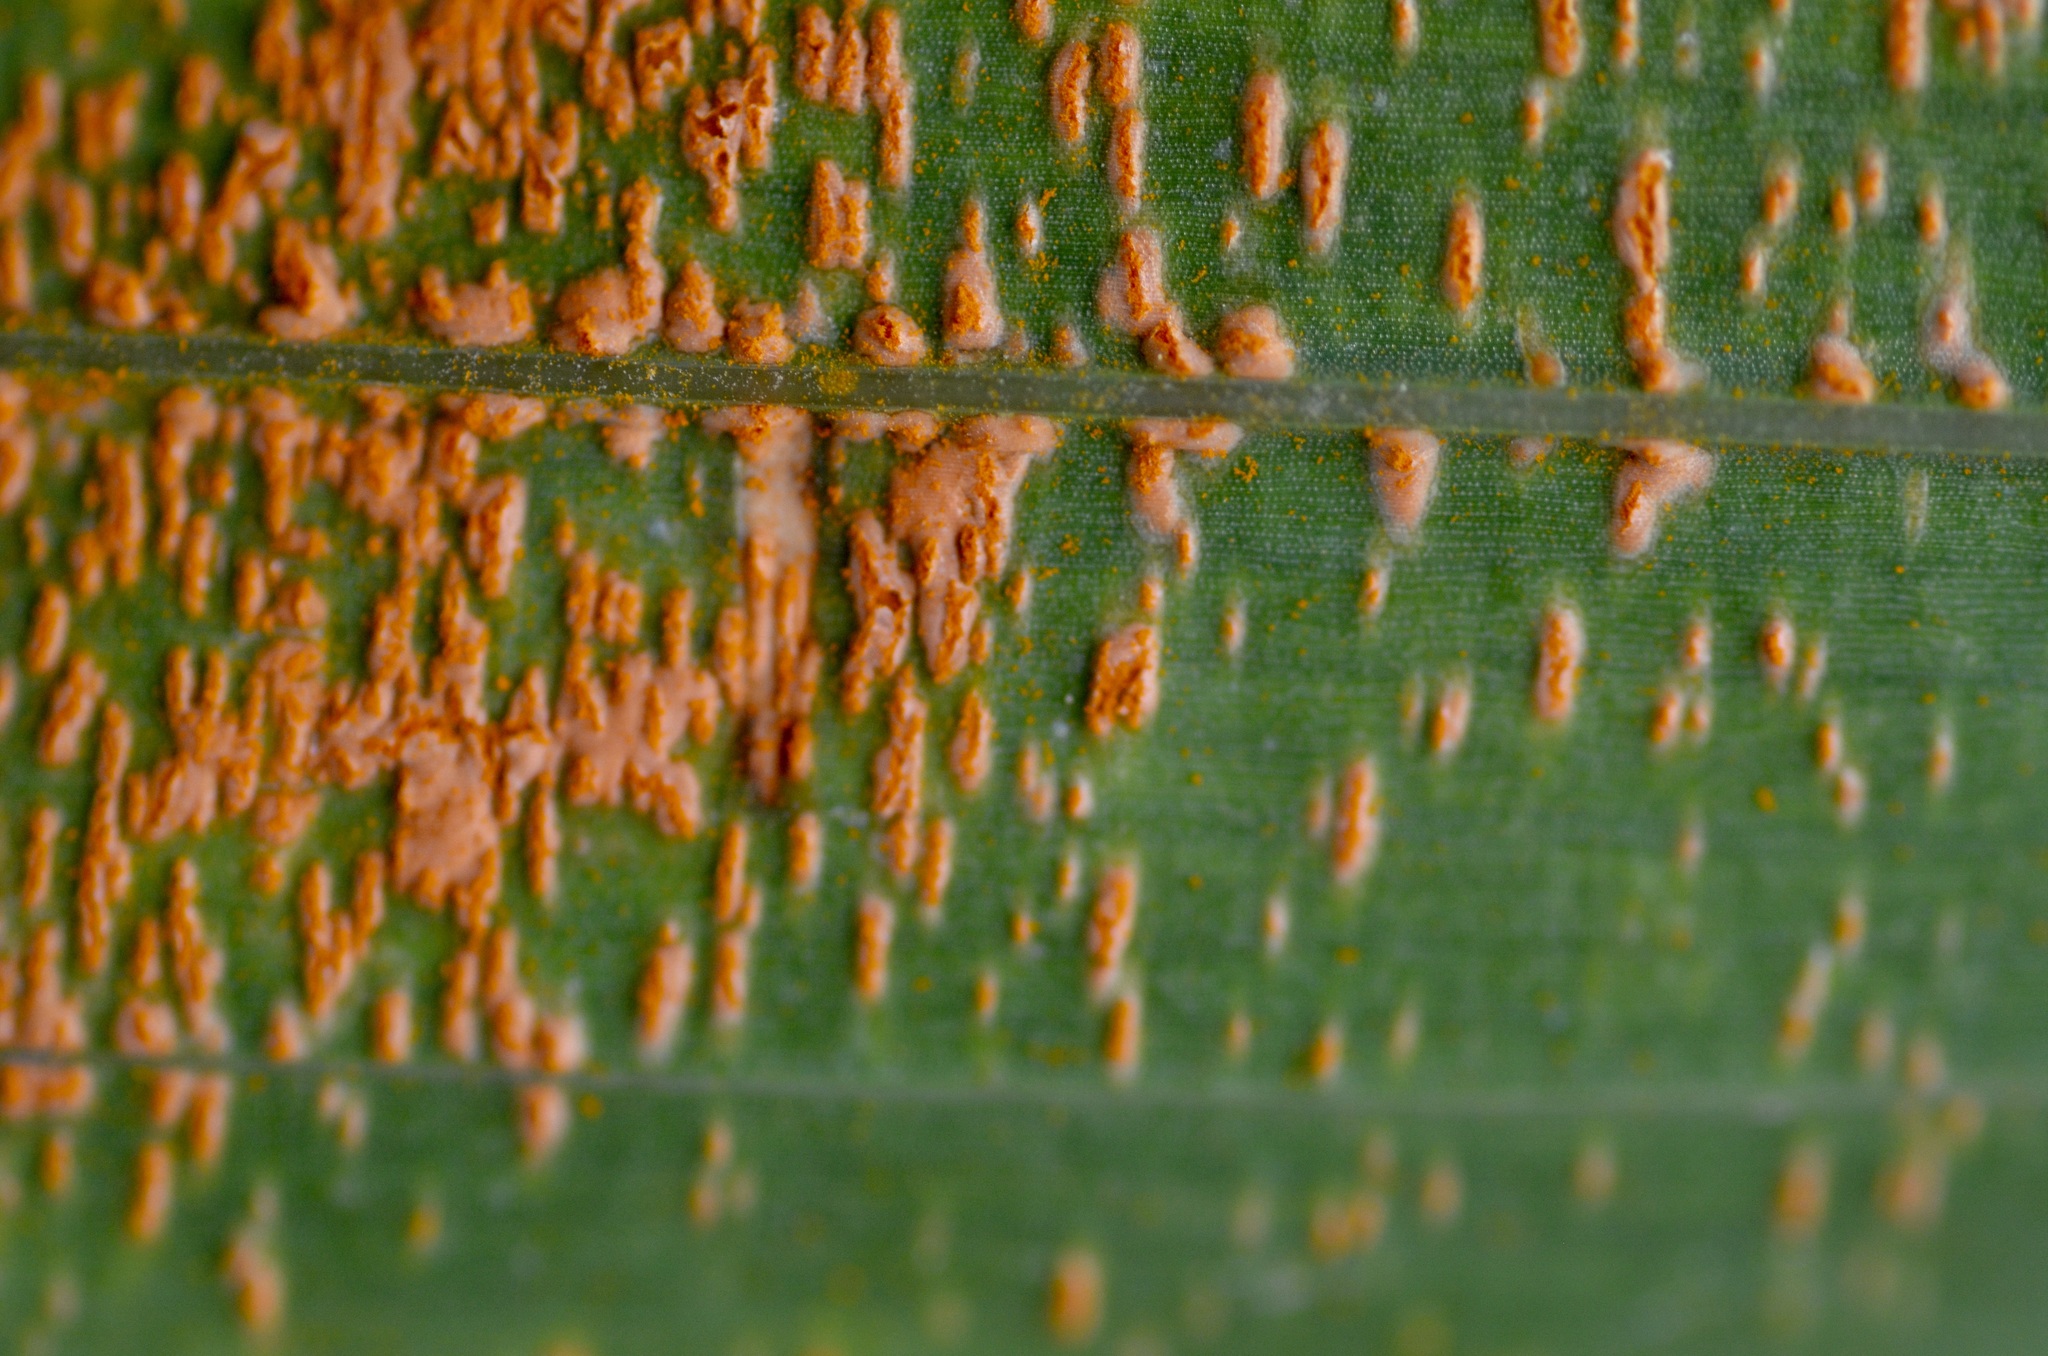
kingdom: Fungi
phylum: Basidiomycota
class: Pucciniomycetes
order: Pucciniales
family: Pucciniaceae
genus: Uromyces
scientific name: Uromyces transversalis
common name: Rust of gladiolus
